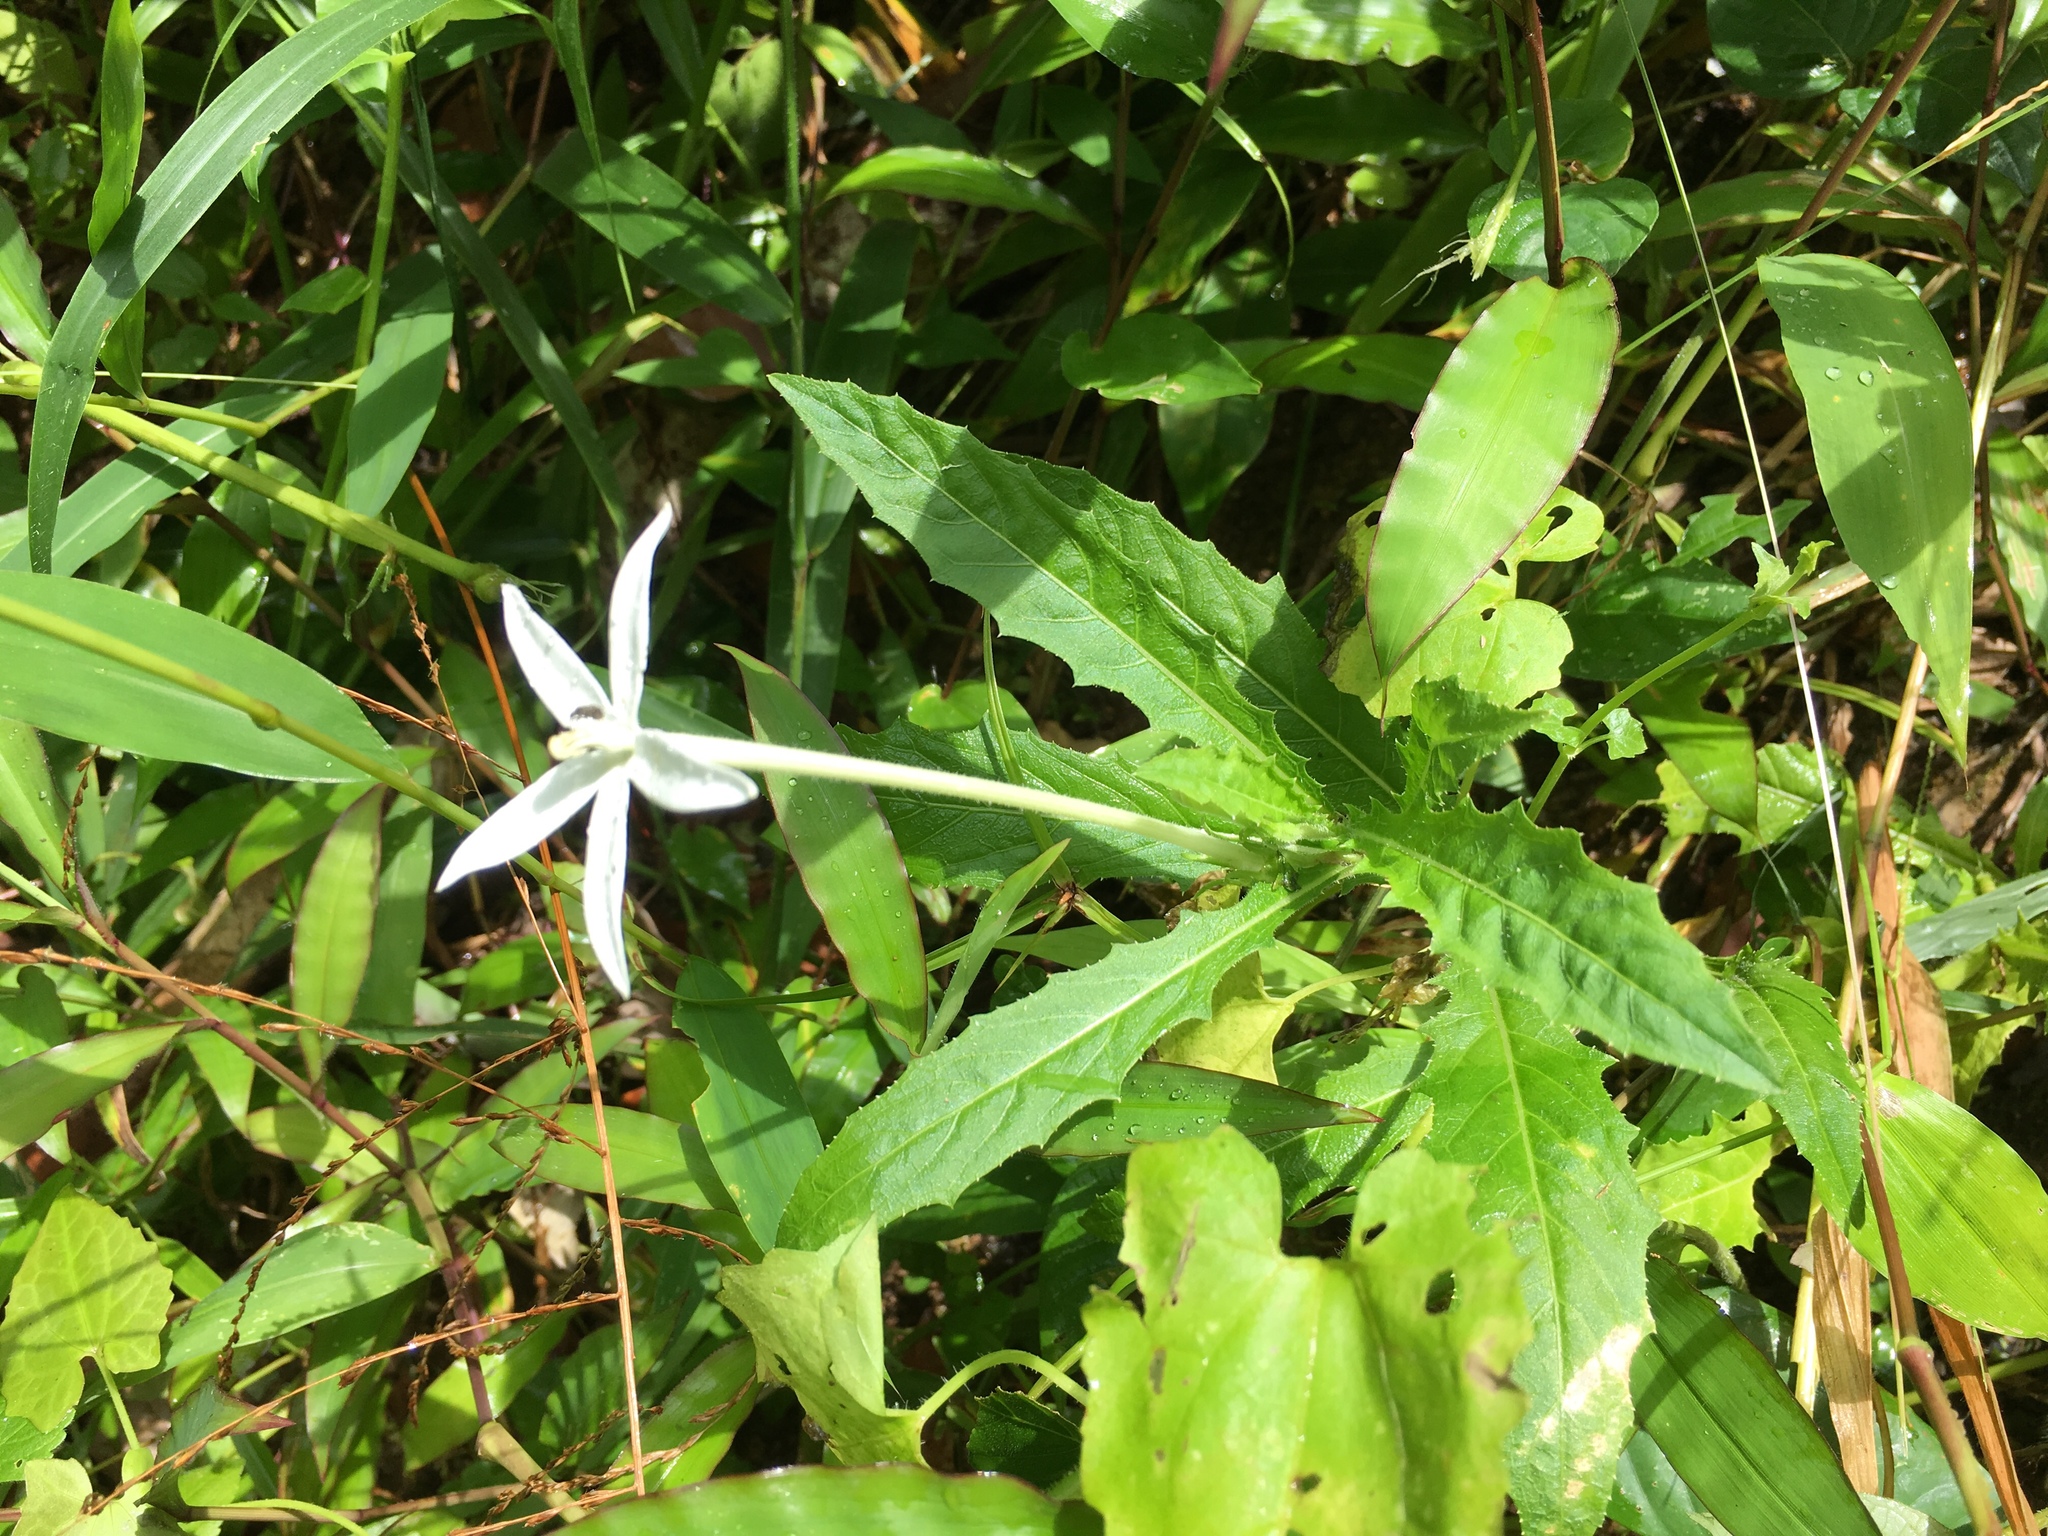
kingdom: Plantae
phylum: Tracheophyta
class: Magnoliopsida
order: Asterales
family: Campanulaceae
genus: Hippobroma
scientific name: Hippobroma longiflora
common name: Madamfate
